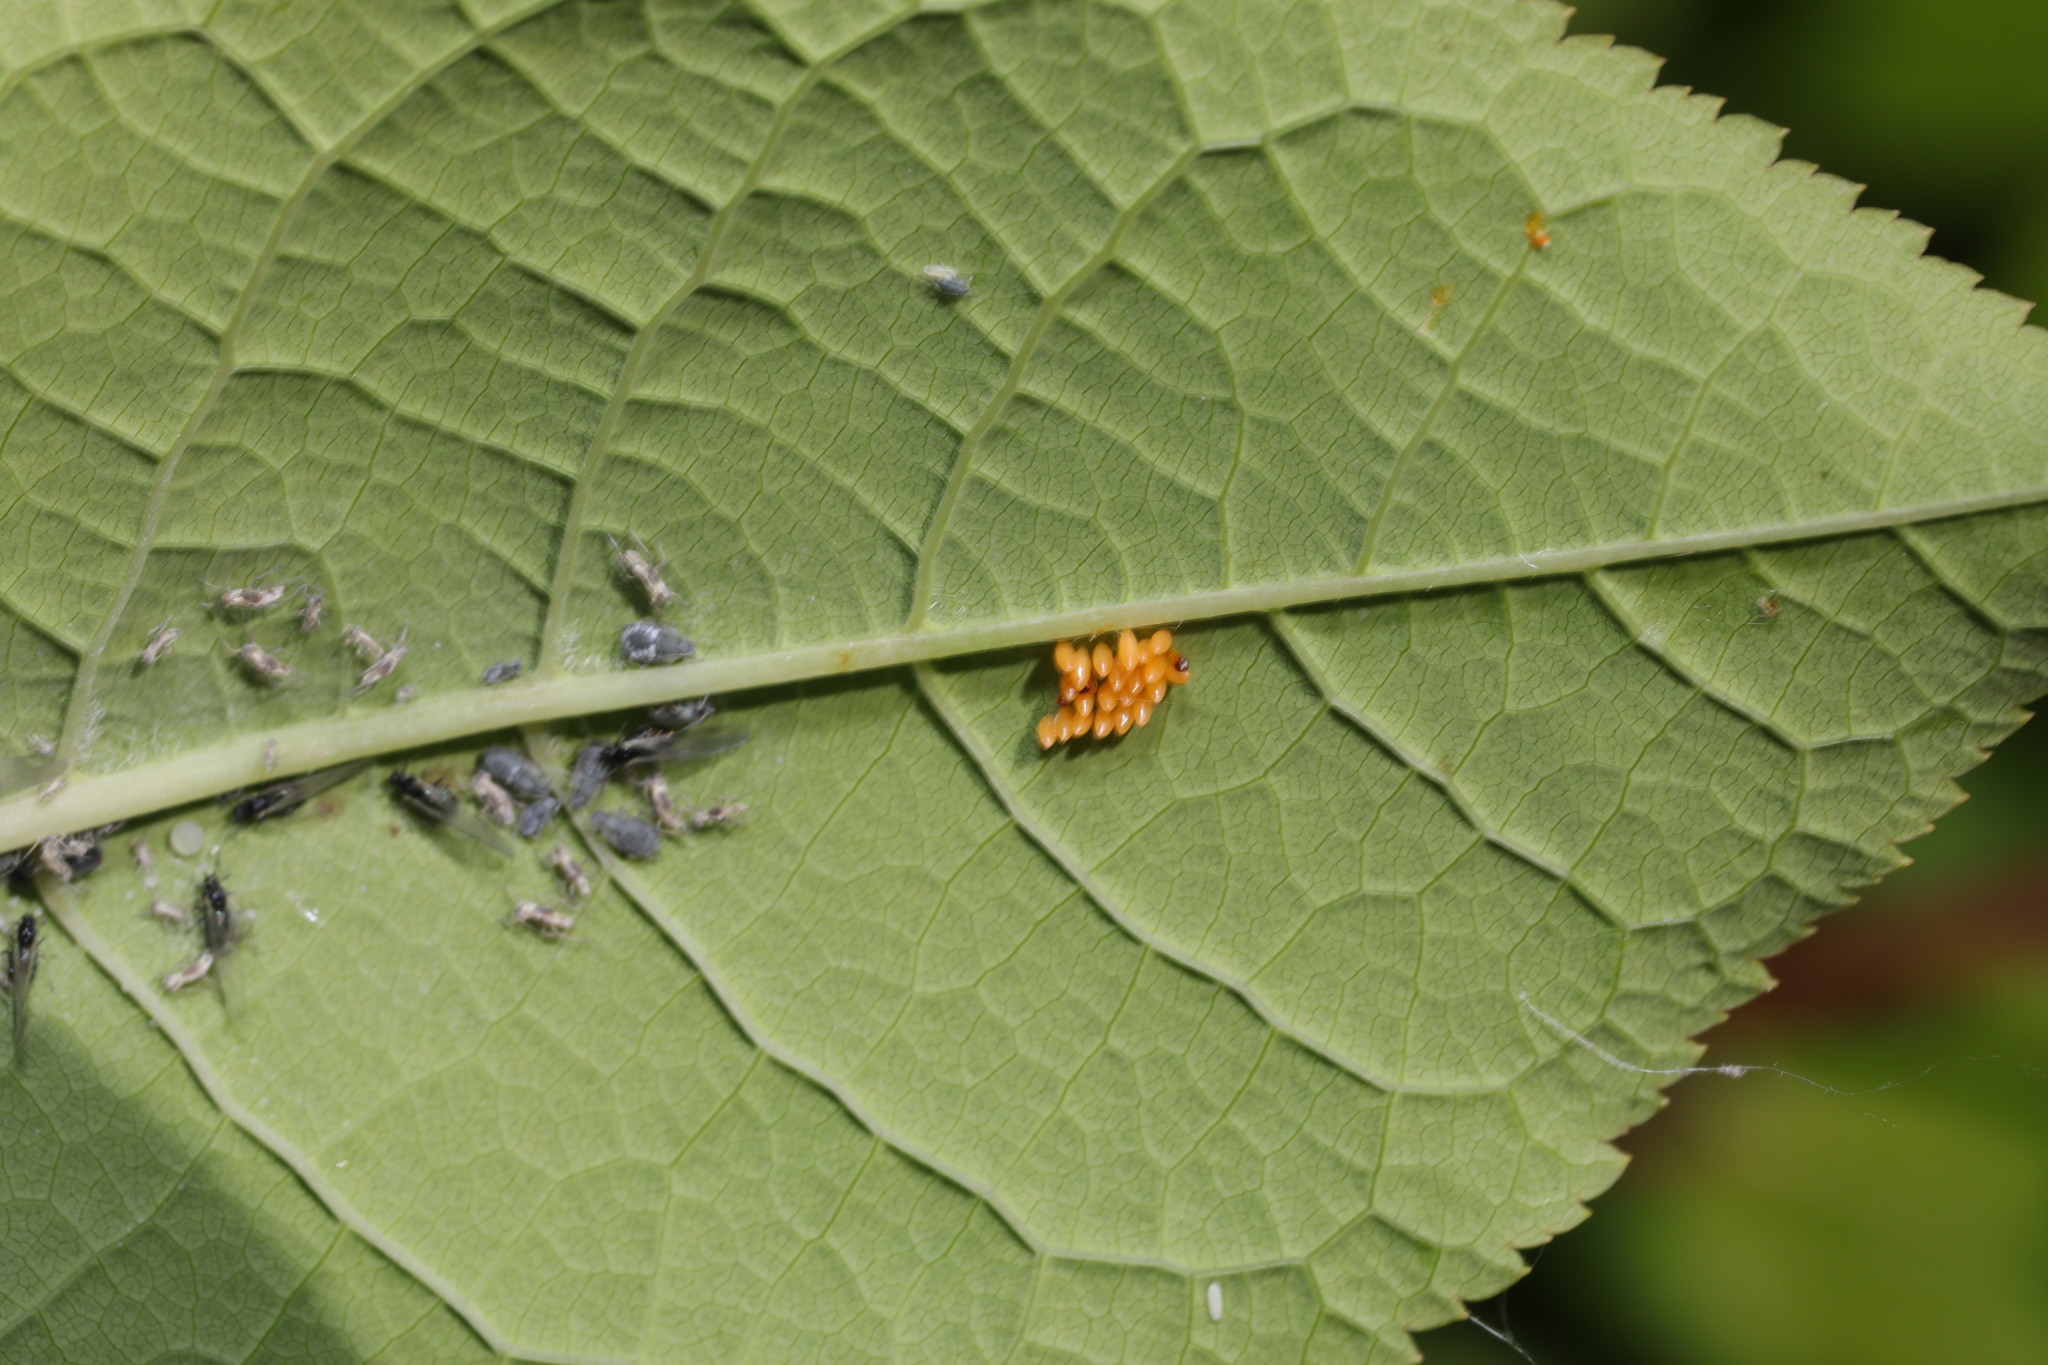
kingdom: Animalia
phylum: Arthropoda
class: Insecta
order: Hemiptera
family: Aphididae
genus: Myzus
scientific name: Myzus cerasi
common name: Black cherry aphid
